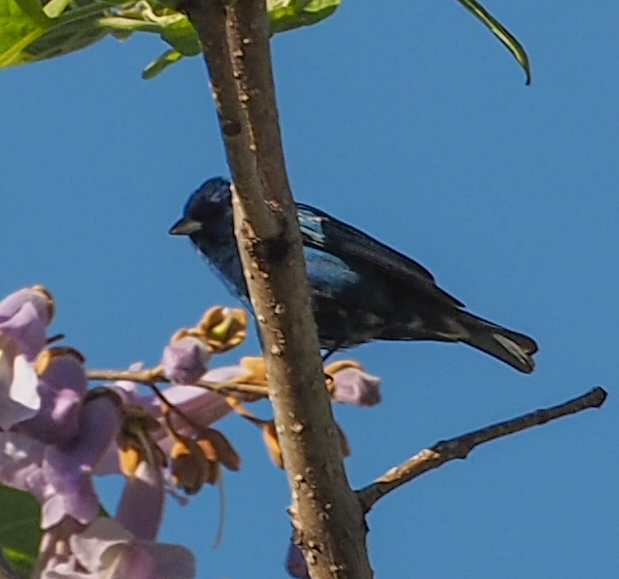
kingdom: Animalia
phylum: Chordata
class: Aves
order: Passeriformes
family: Cardinalidae
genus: Passerina
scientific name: Passerina cyanea
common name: Indigo bunting
